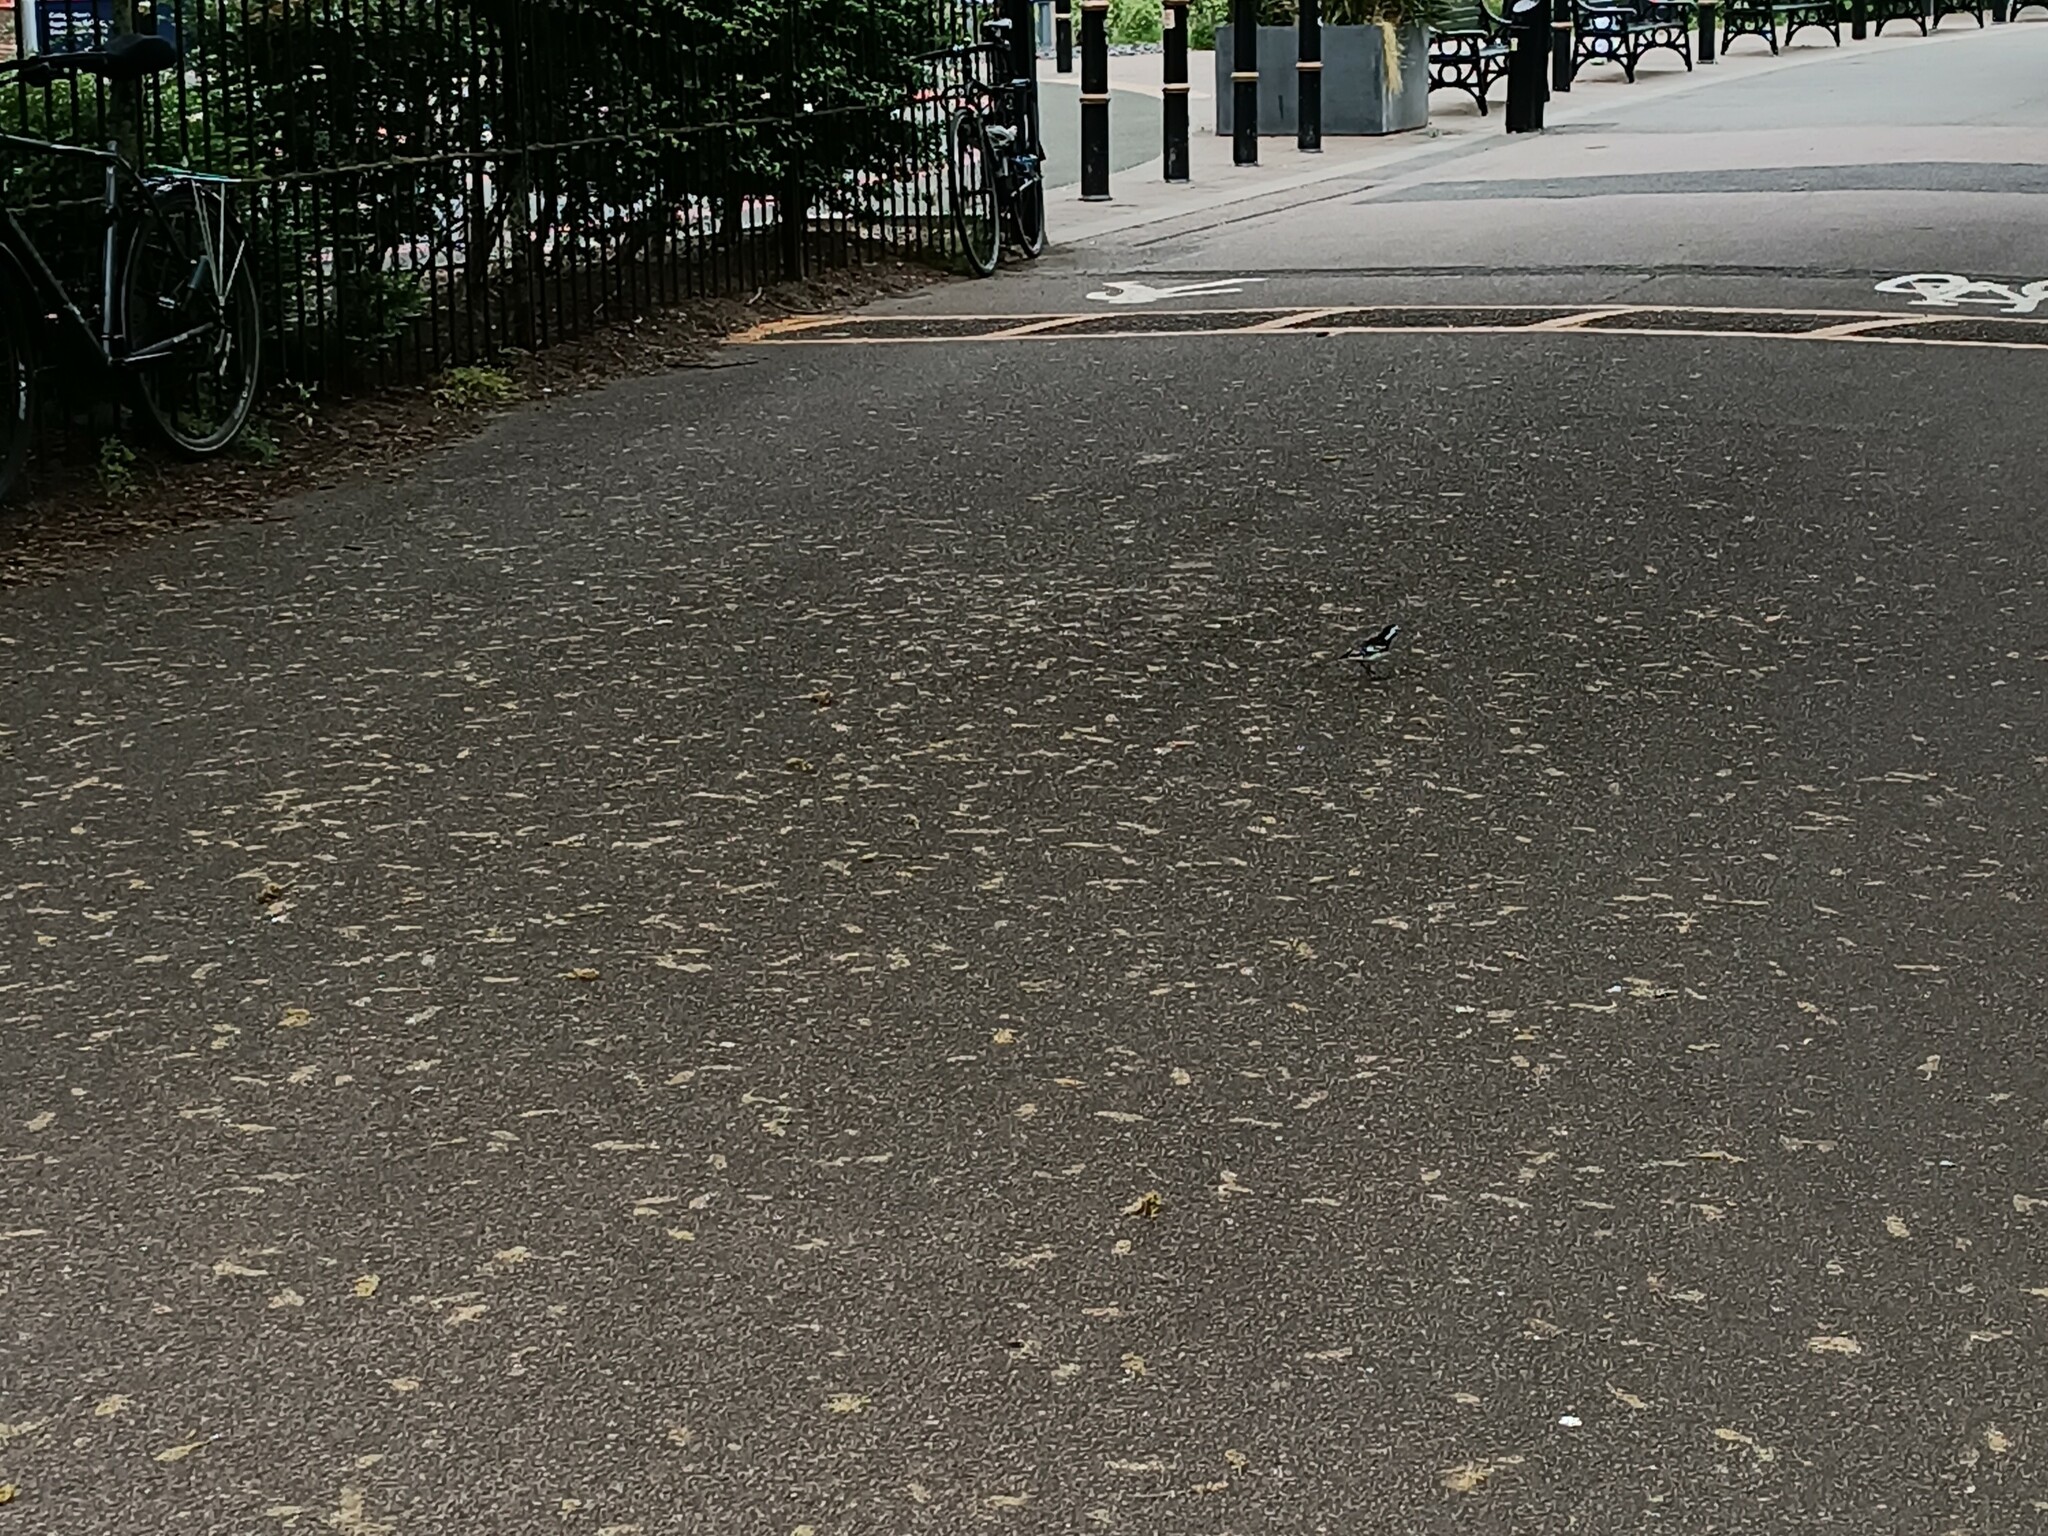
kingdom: Animalia
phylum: Chordata
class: Aves
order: Passeriformes
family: Motacillidae
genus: Motacilla
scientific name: Motacilla alba
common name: White wagtail
